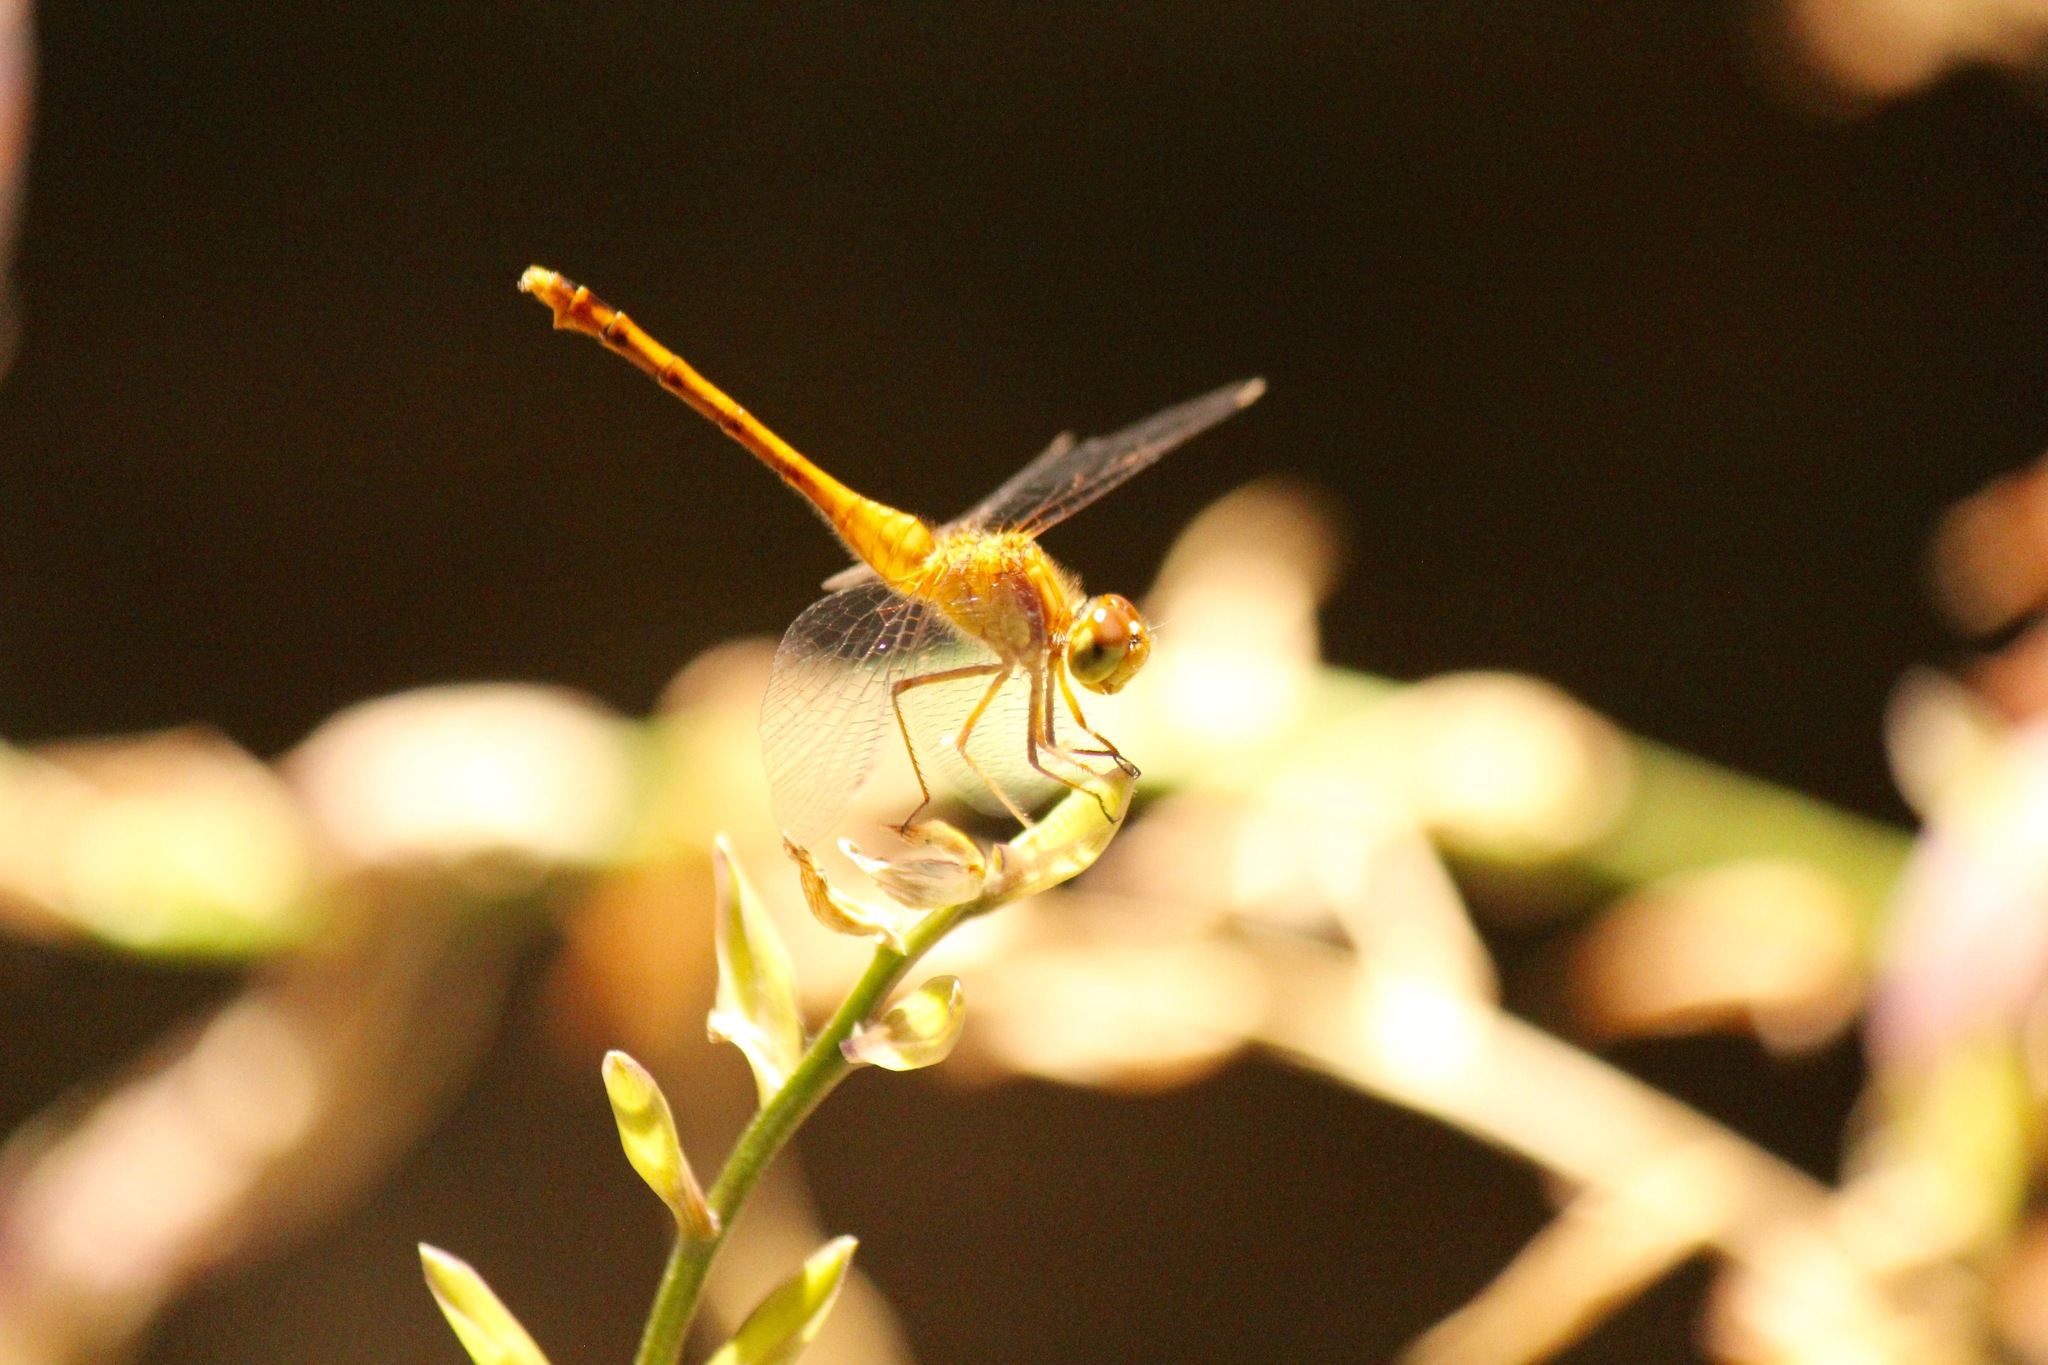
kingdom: Animalia
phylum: Arthropoda
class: Insecta
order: Odonata
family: Libellulidae
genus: Sympetrum
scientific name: Sympetrum vicinum
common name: Autumn meadowhawk
